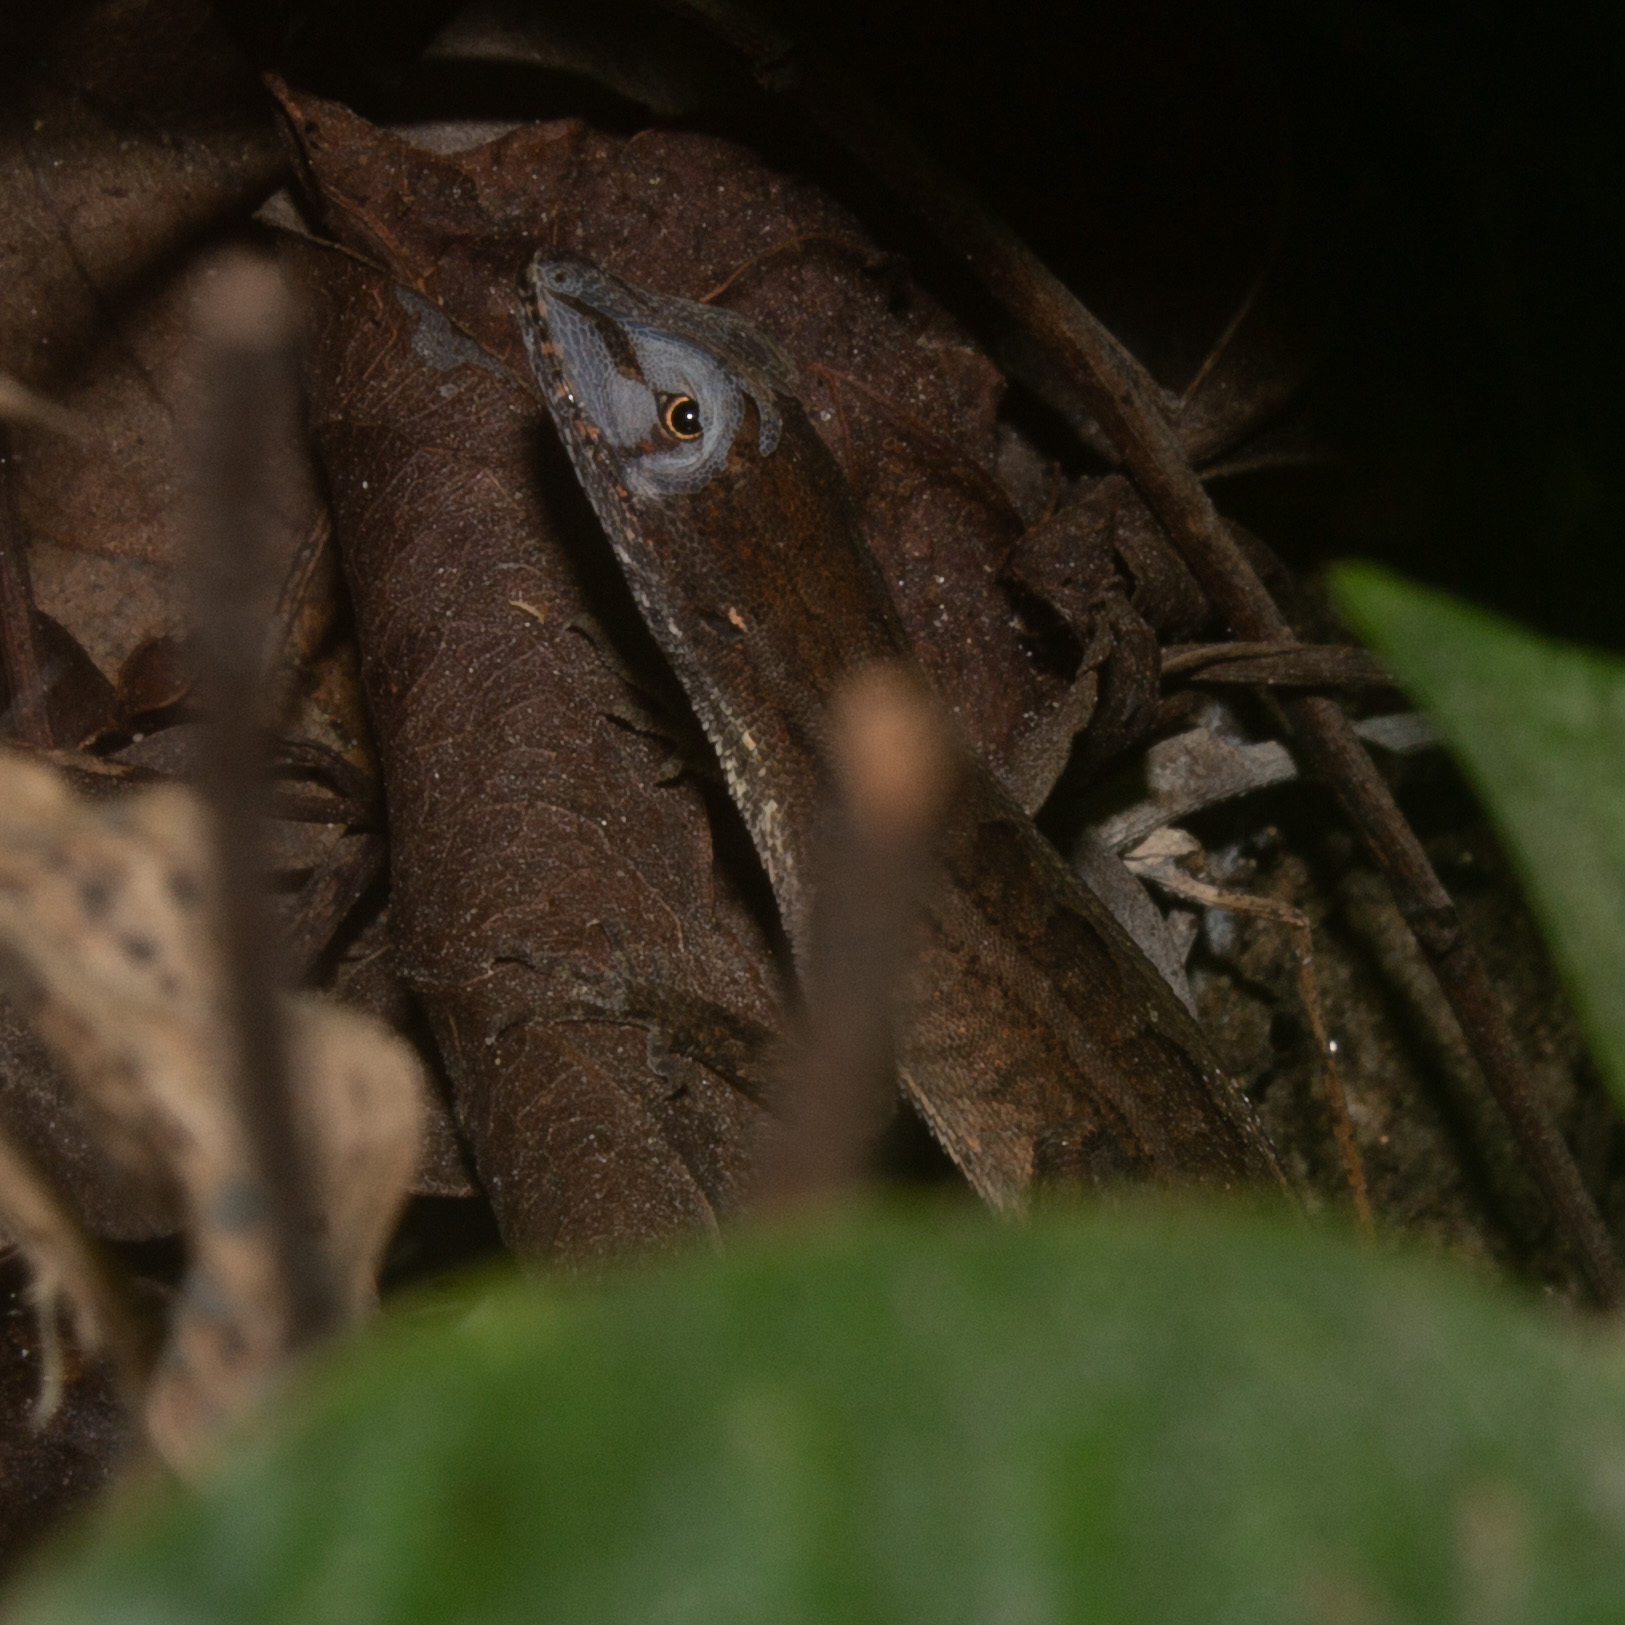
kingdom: Animalia
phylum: Chordata
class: Squamata
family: Dactyloidae
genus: Anolis
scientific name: Anolis auratus
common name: Grass anole
